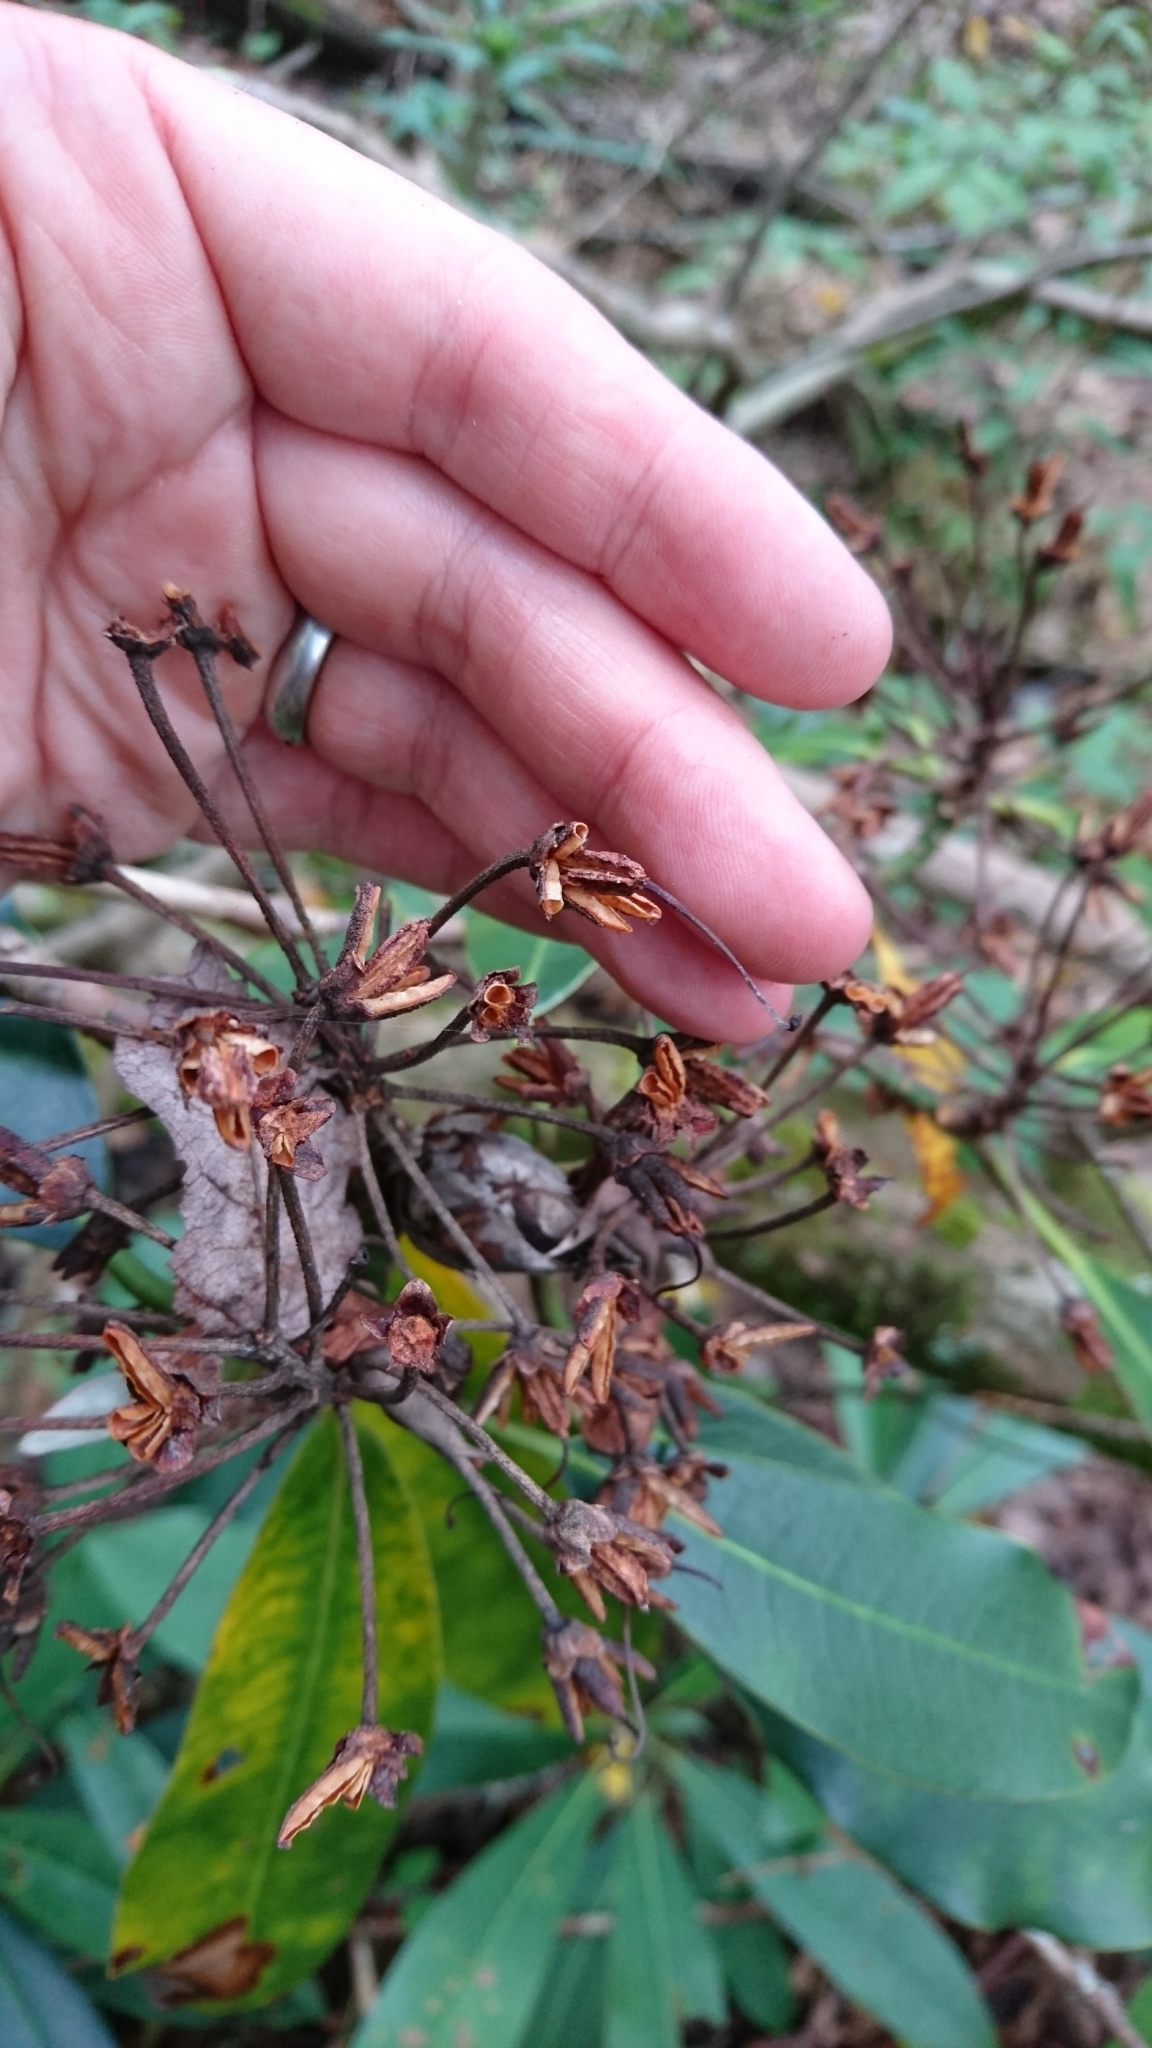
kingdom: Plantae
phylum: Tracheophyta
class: Magnoliopsida
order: Ericales
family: Ericaceae
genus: Rhododendron
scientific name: Rhododendron maximum
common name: Great rhododendron
